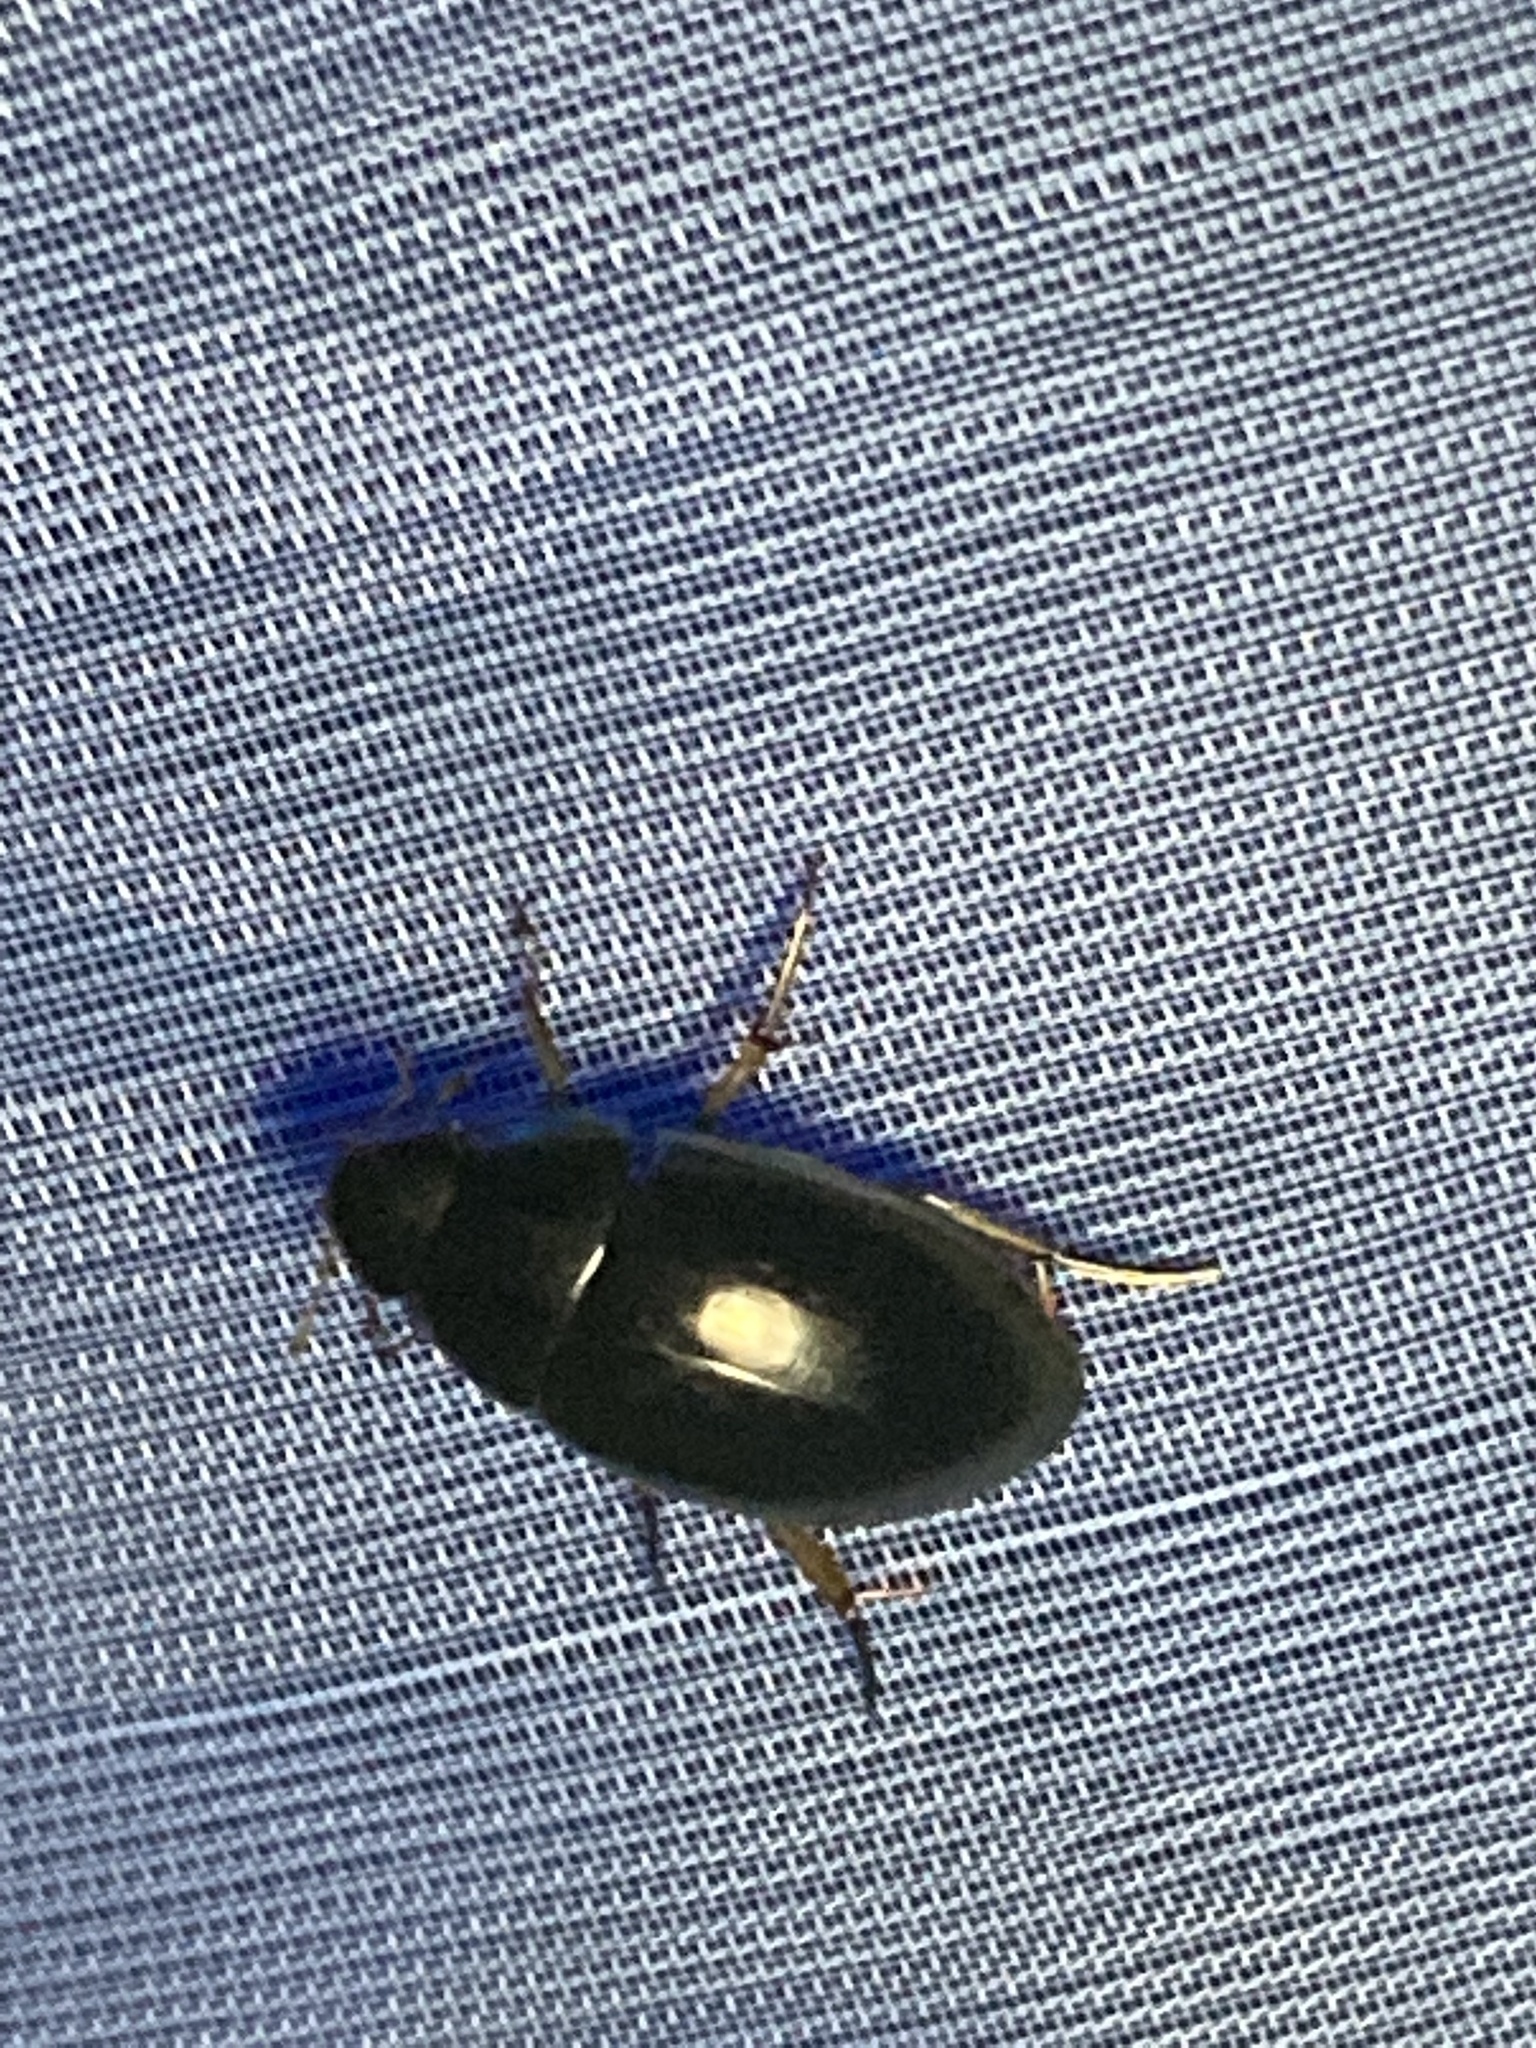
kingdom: Animalia
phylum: Arthropoda
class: Insecta
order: Coleoptera
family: Hydrophilidae
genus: Tropisternus
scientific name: Tropisternus lateralis
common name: Lateral-banded water scavenger beetle
